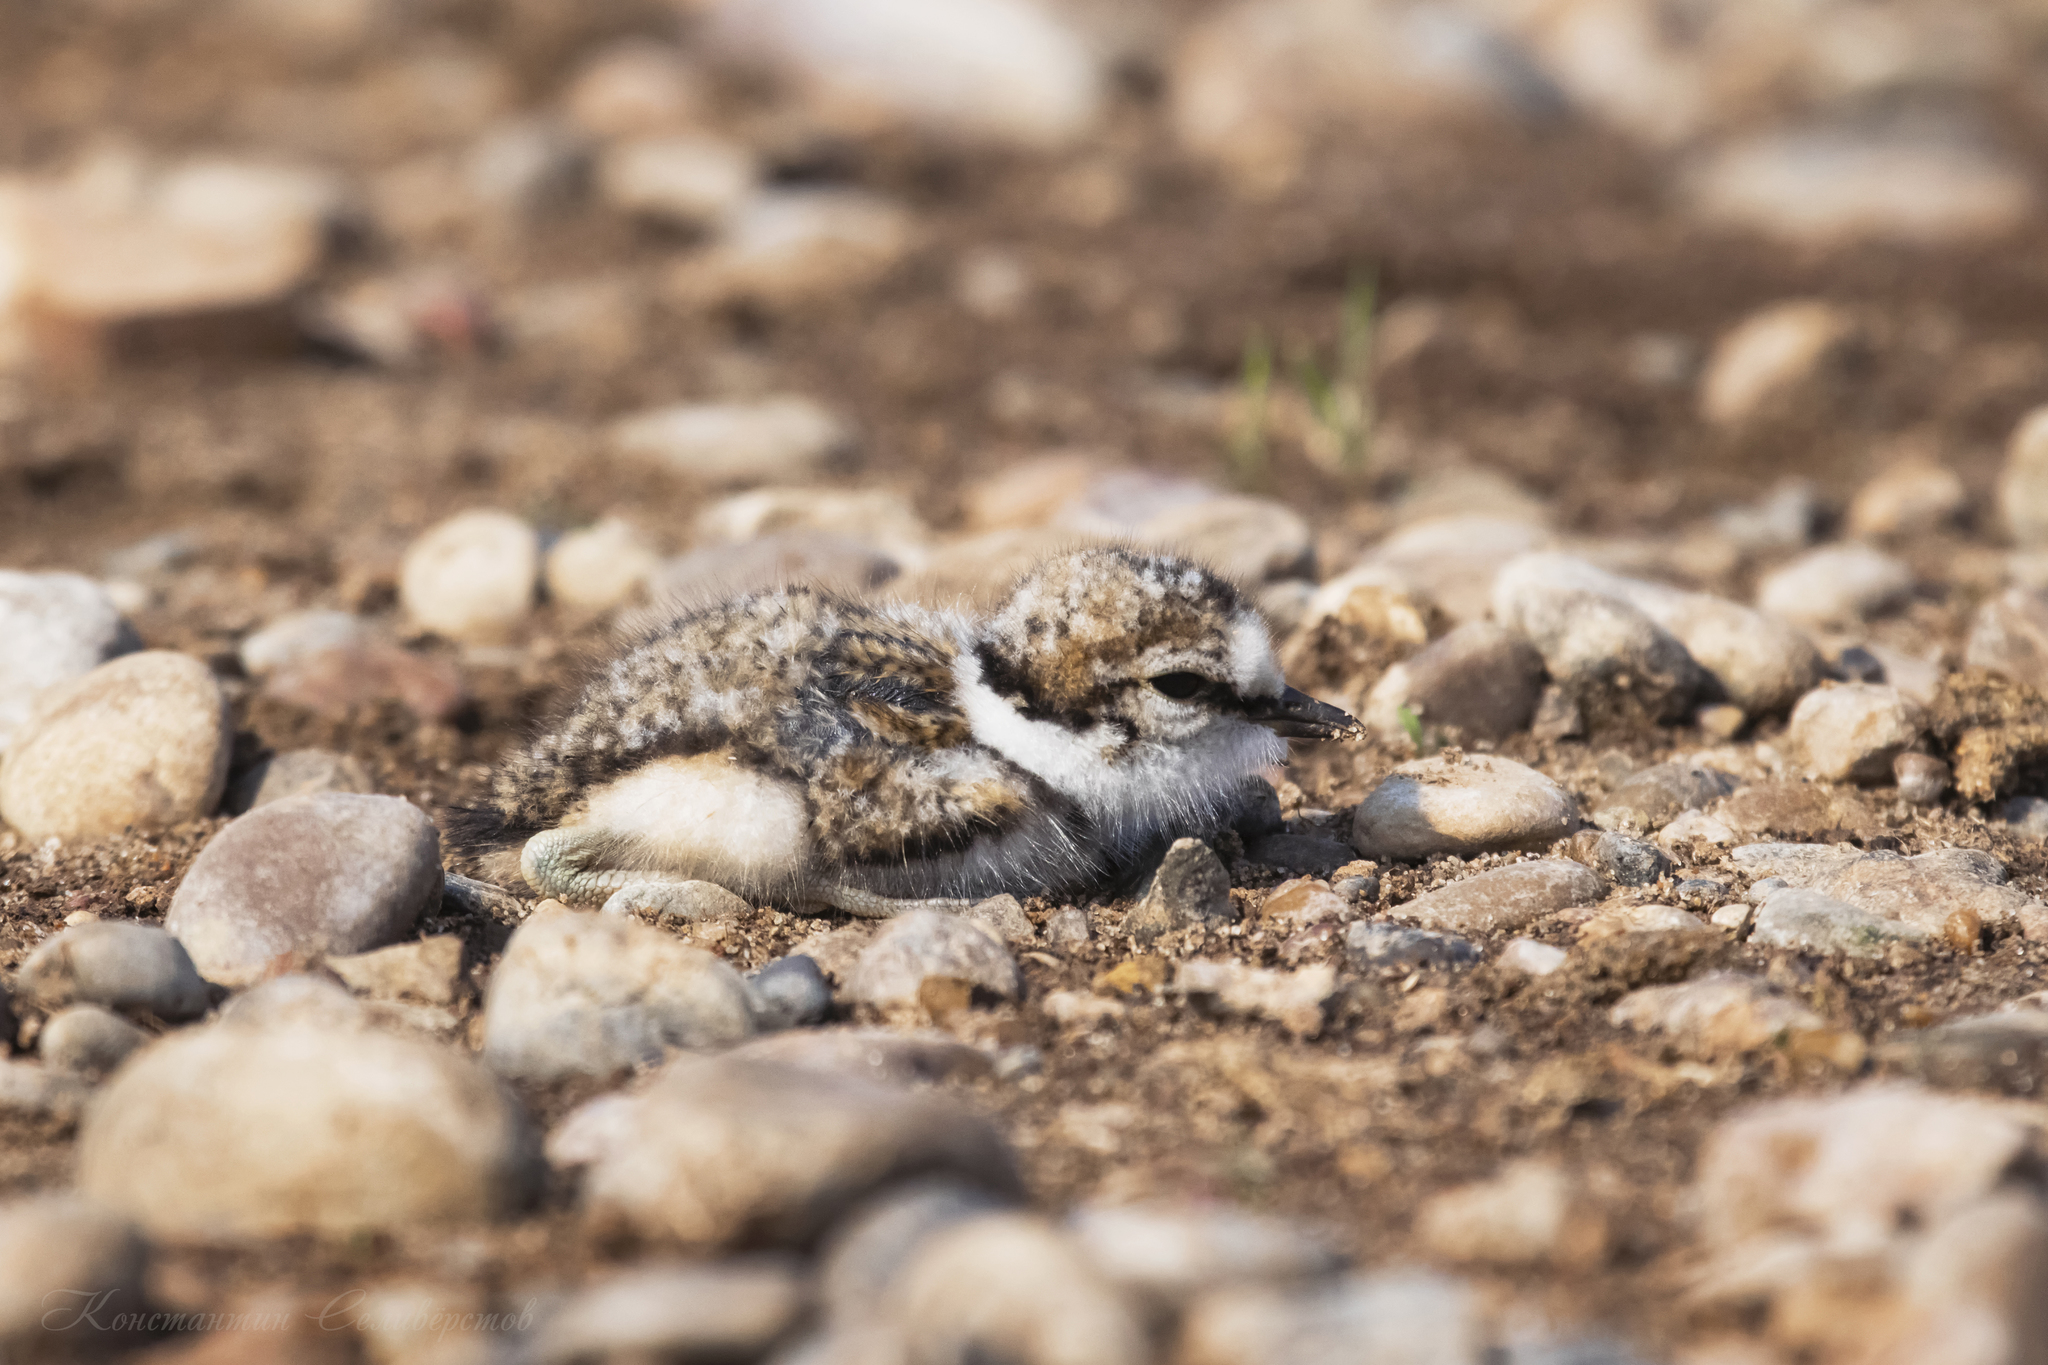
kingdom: Animalia
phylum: Chordata
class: Aves
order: Charadriiformes
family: Charadriidae
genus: Charadrius
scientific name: Charadrius dubius
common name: Little ringed plover
